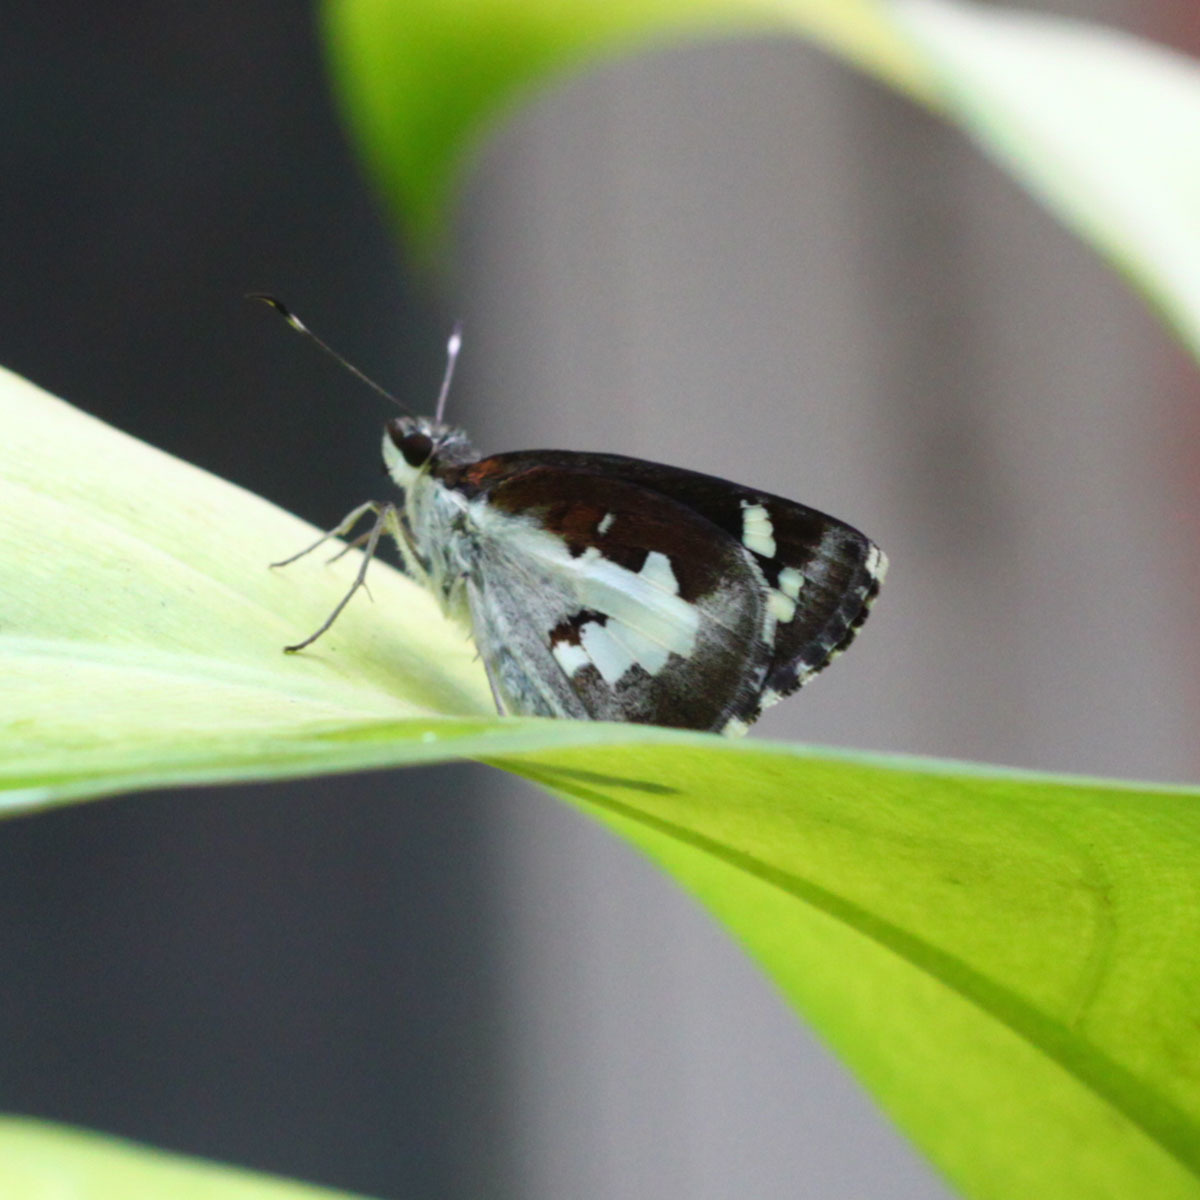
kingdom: Animalia
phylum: Arthropoda
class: Insecta
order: Lepidoptera
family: Hesperiidae
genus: Udaspes
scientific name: Udaspes folus
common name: Grass demon
